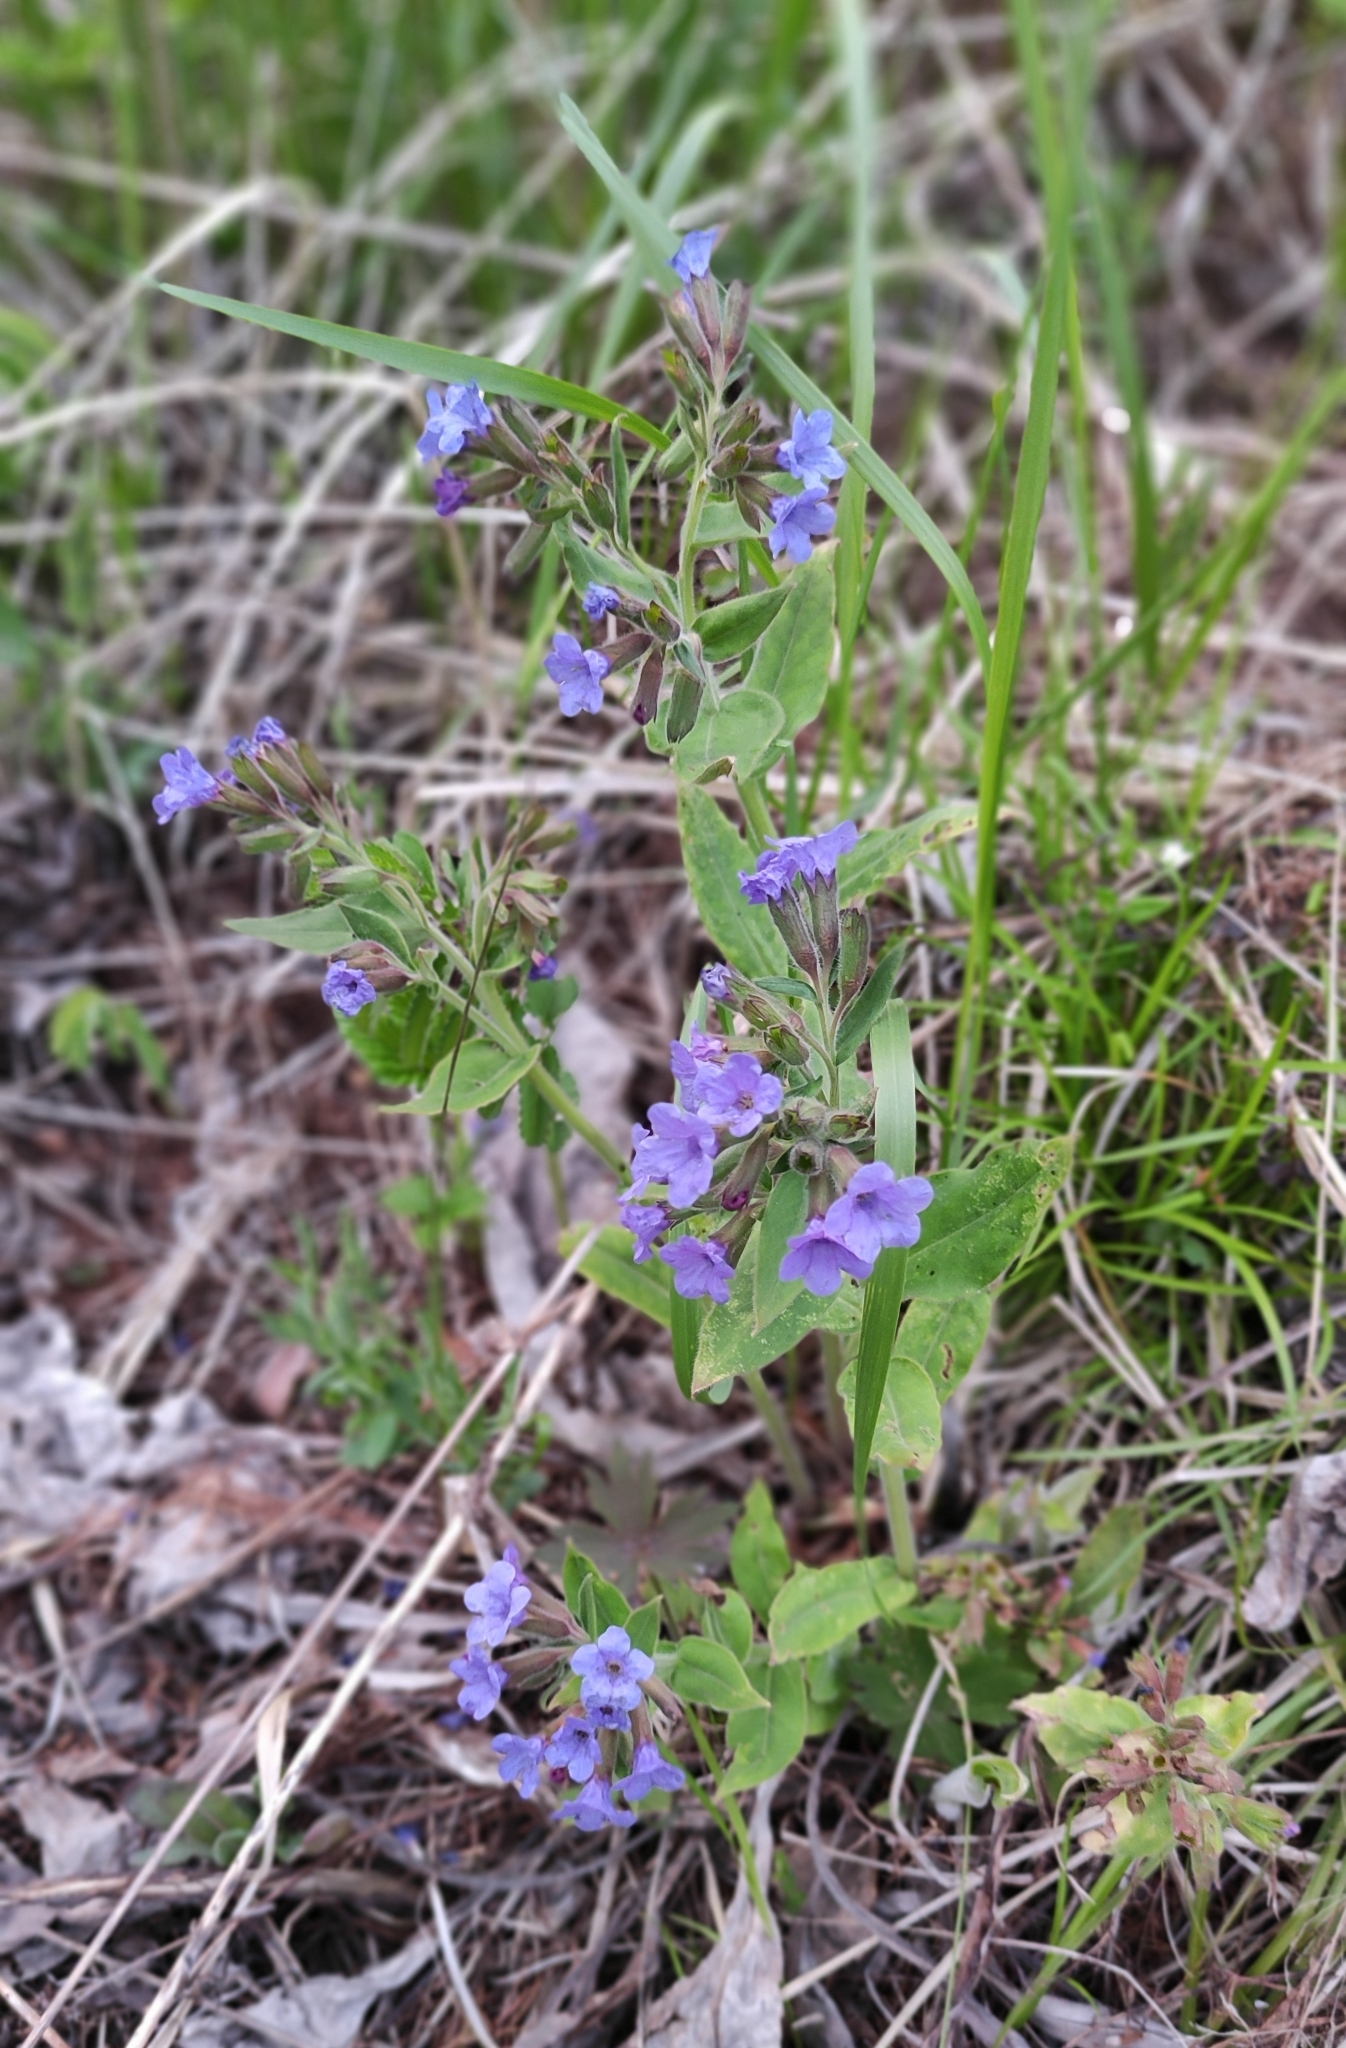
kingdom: Plantae
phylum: Tracheophyta
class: Magnoliopsida
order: Boraginales
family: Boraginaceae
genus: Pulmonaria
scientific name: Pulmonaria mollis
